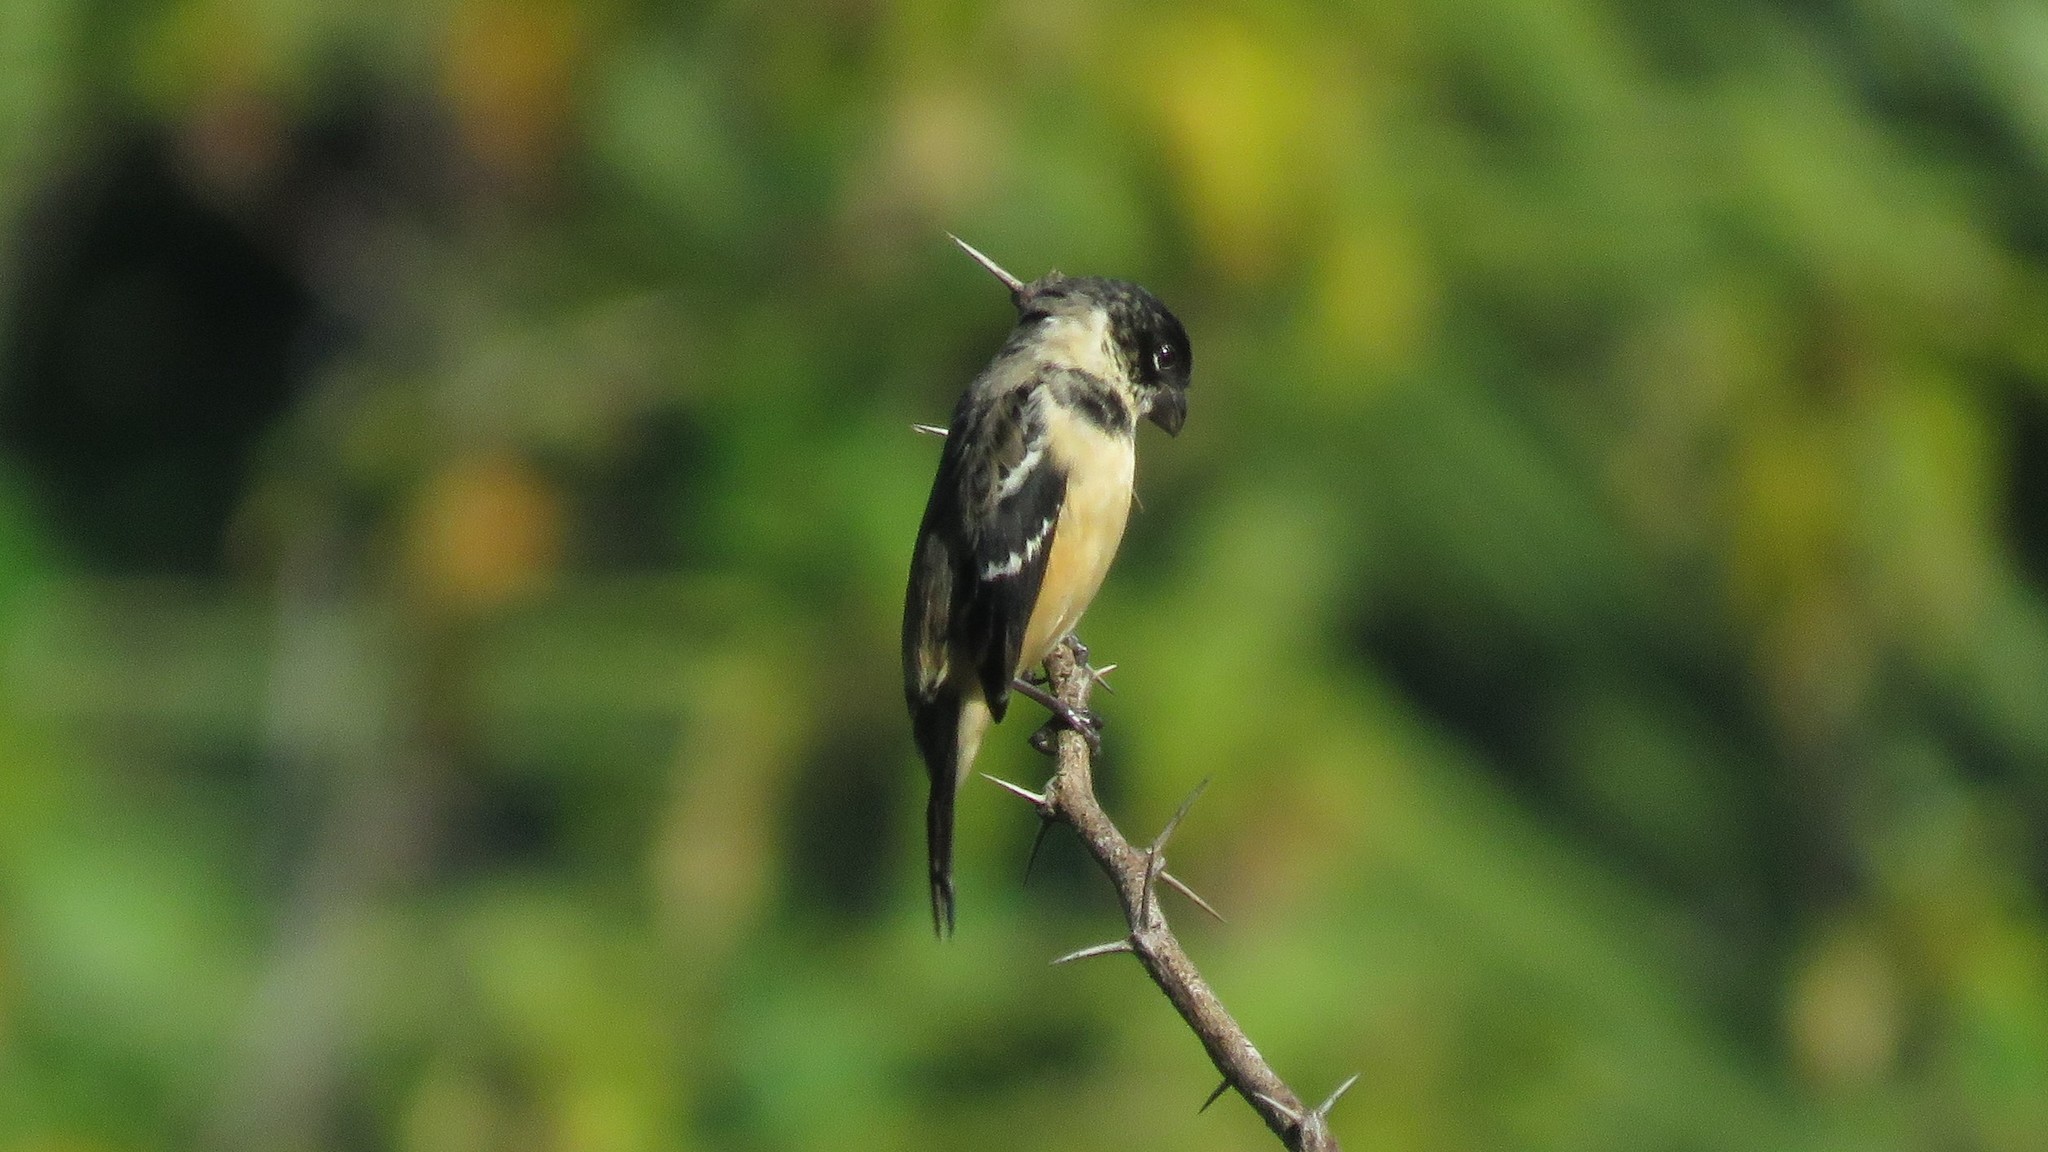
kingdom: Animalia
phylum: Chordata
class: Aves
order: Passeriformes
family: Thraupidae
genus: Sporophila
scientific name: Sporophila morelleti
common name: Morelet's seedeater
